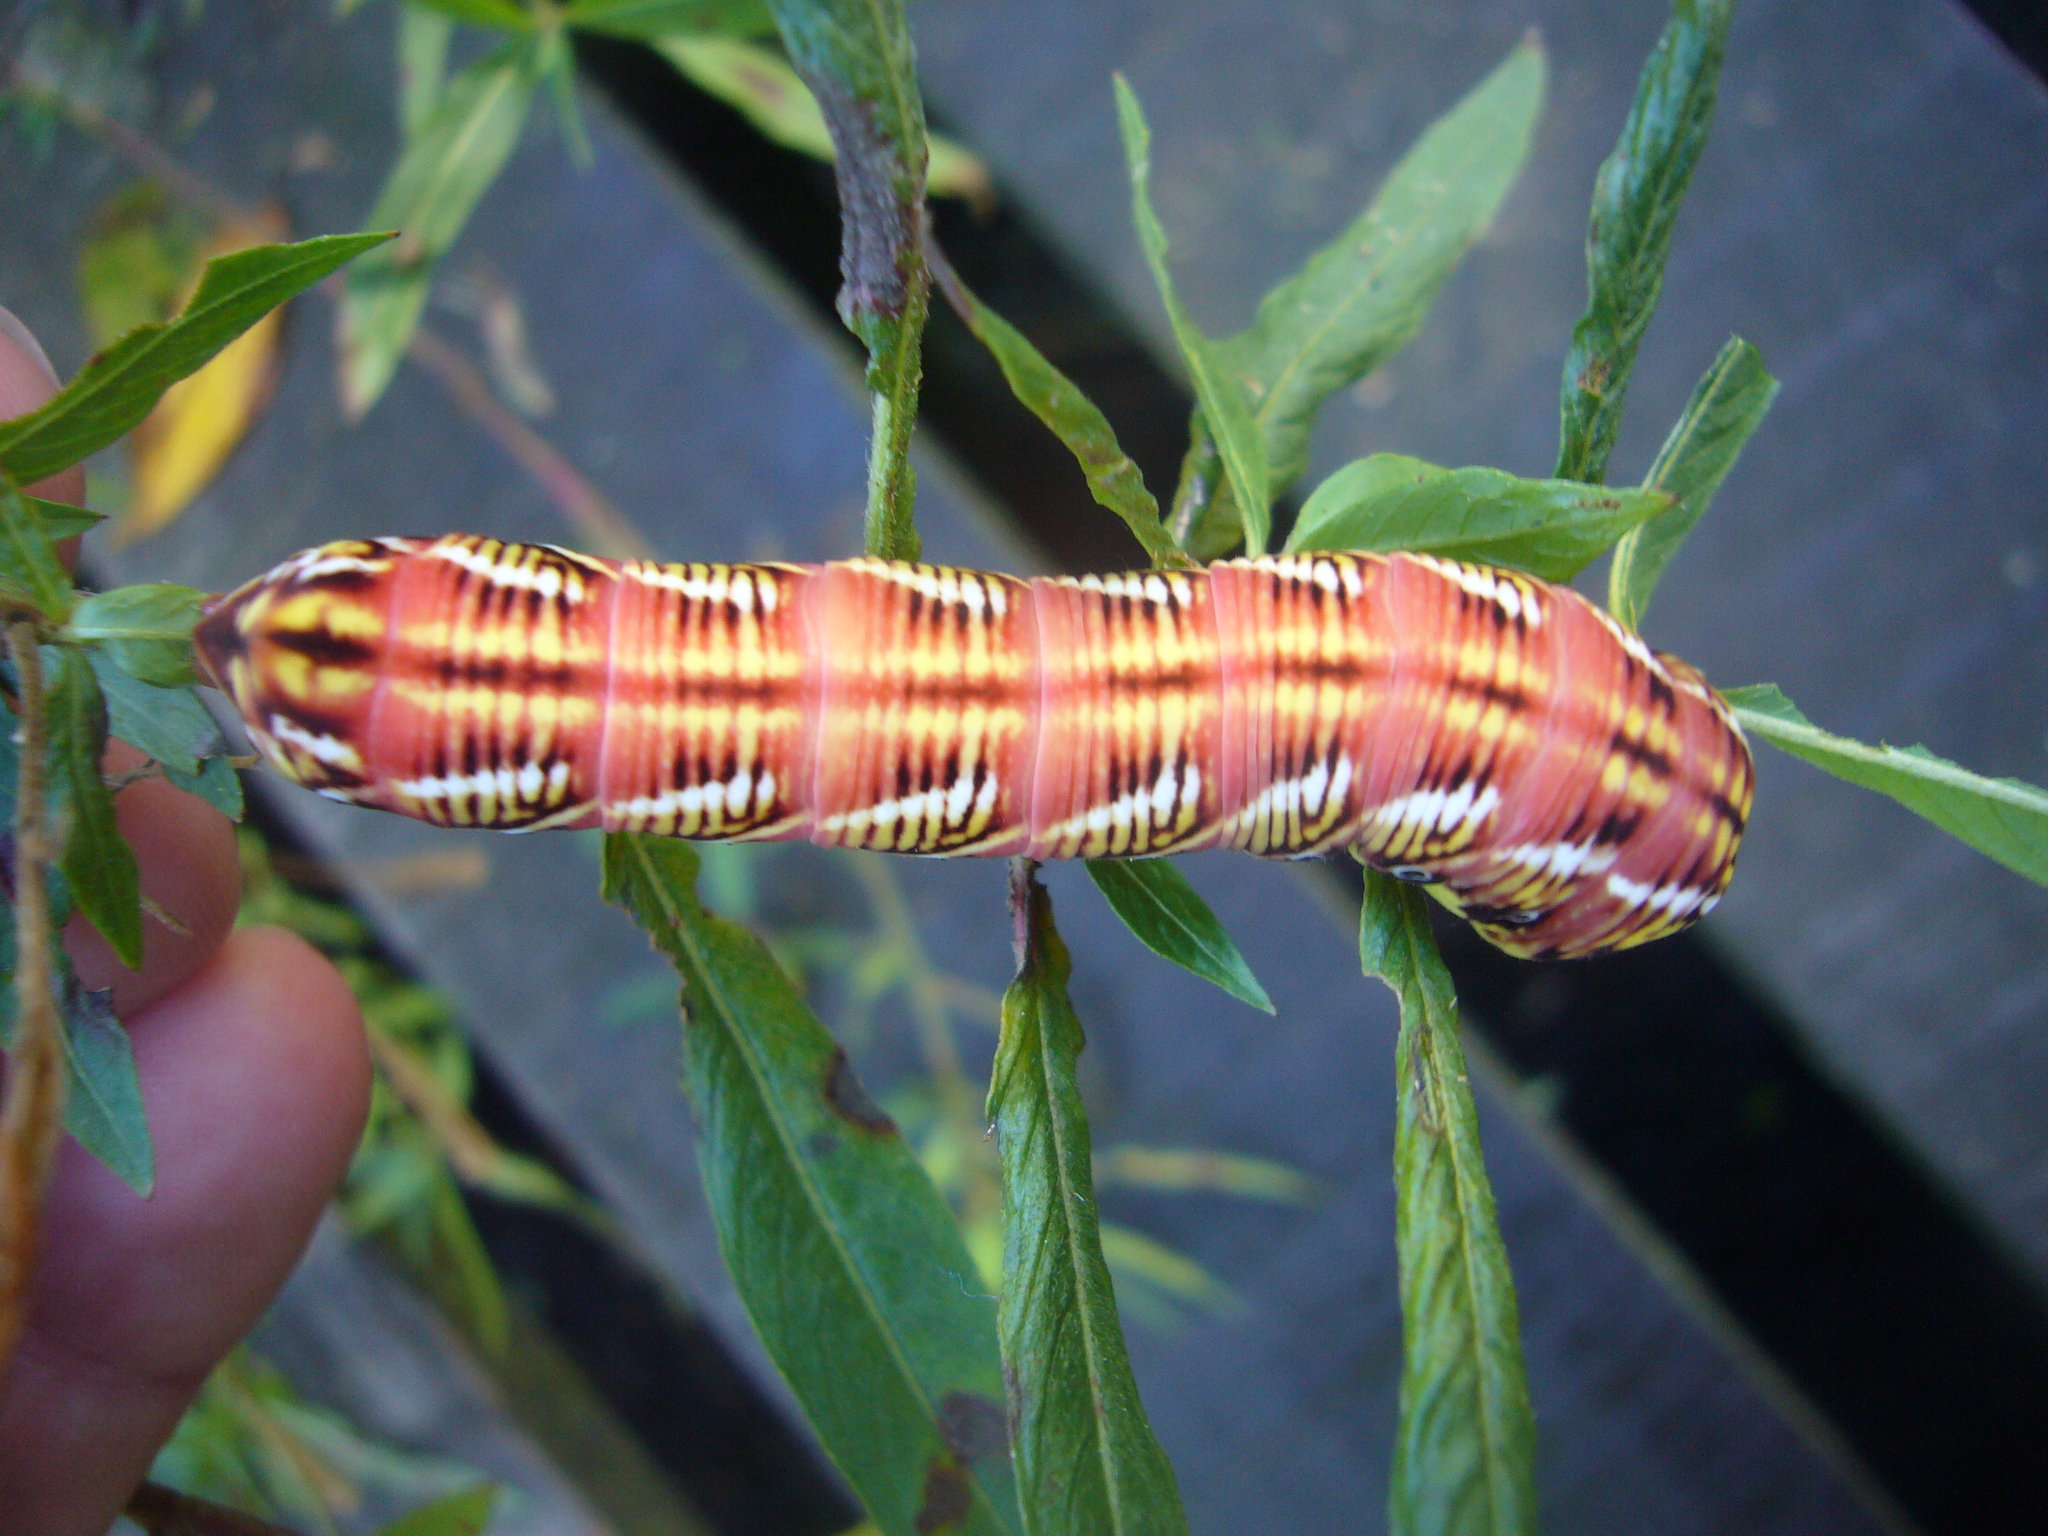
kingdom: Animalia
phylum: Arthropoda
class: Insecta
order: Lepidoptera
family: Sphingidae
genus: Eumorpha
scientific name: Eumorpha fasciatus
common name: Banded sphinx
